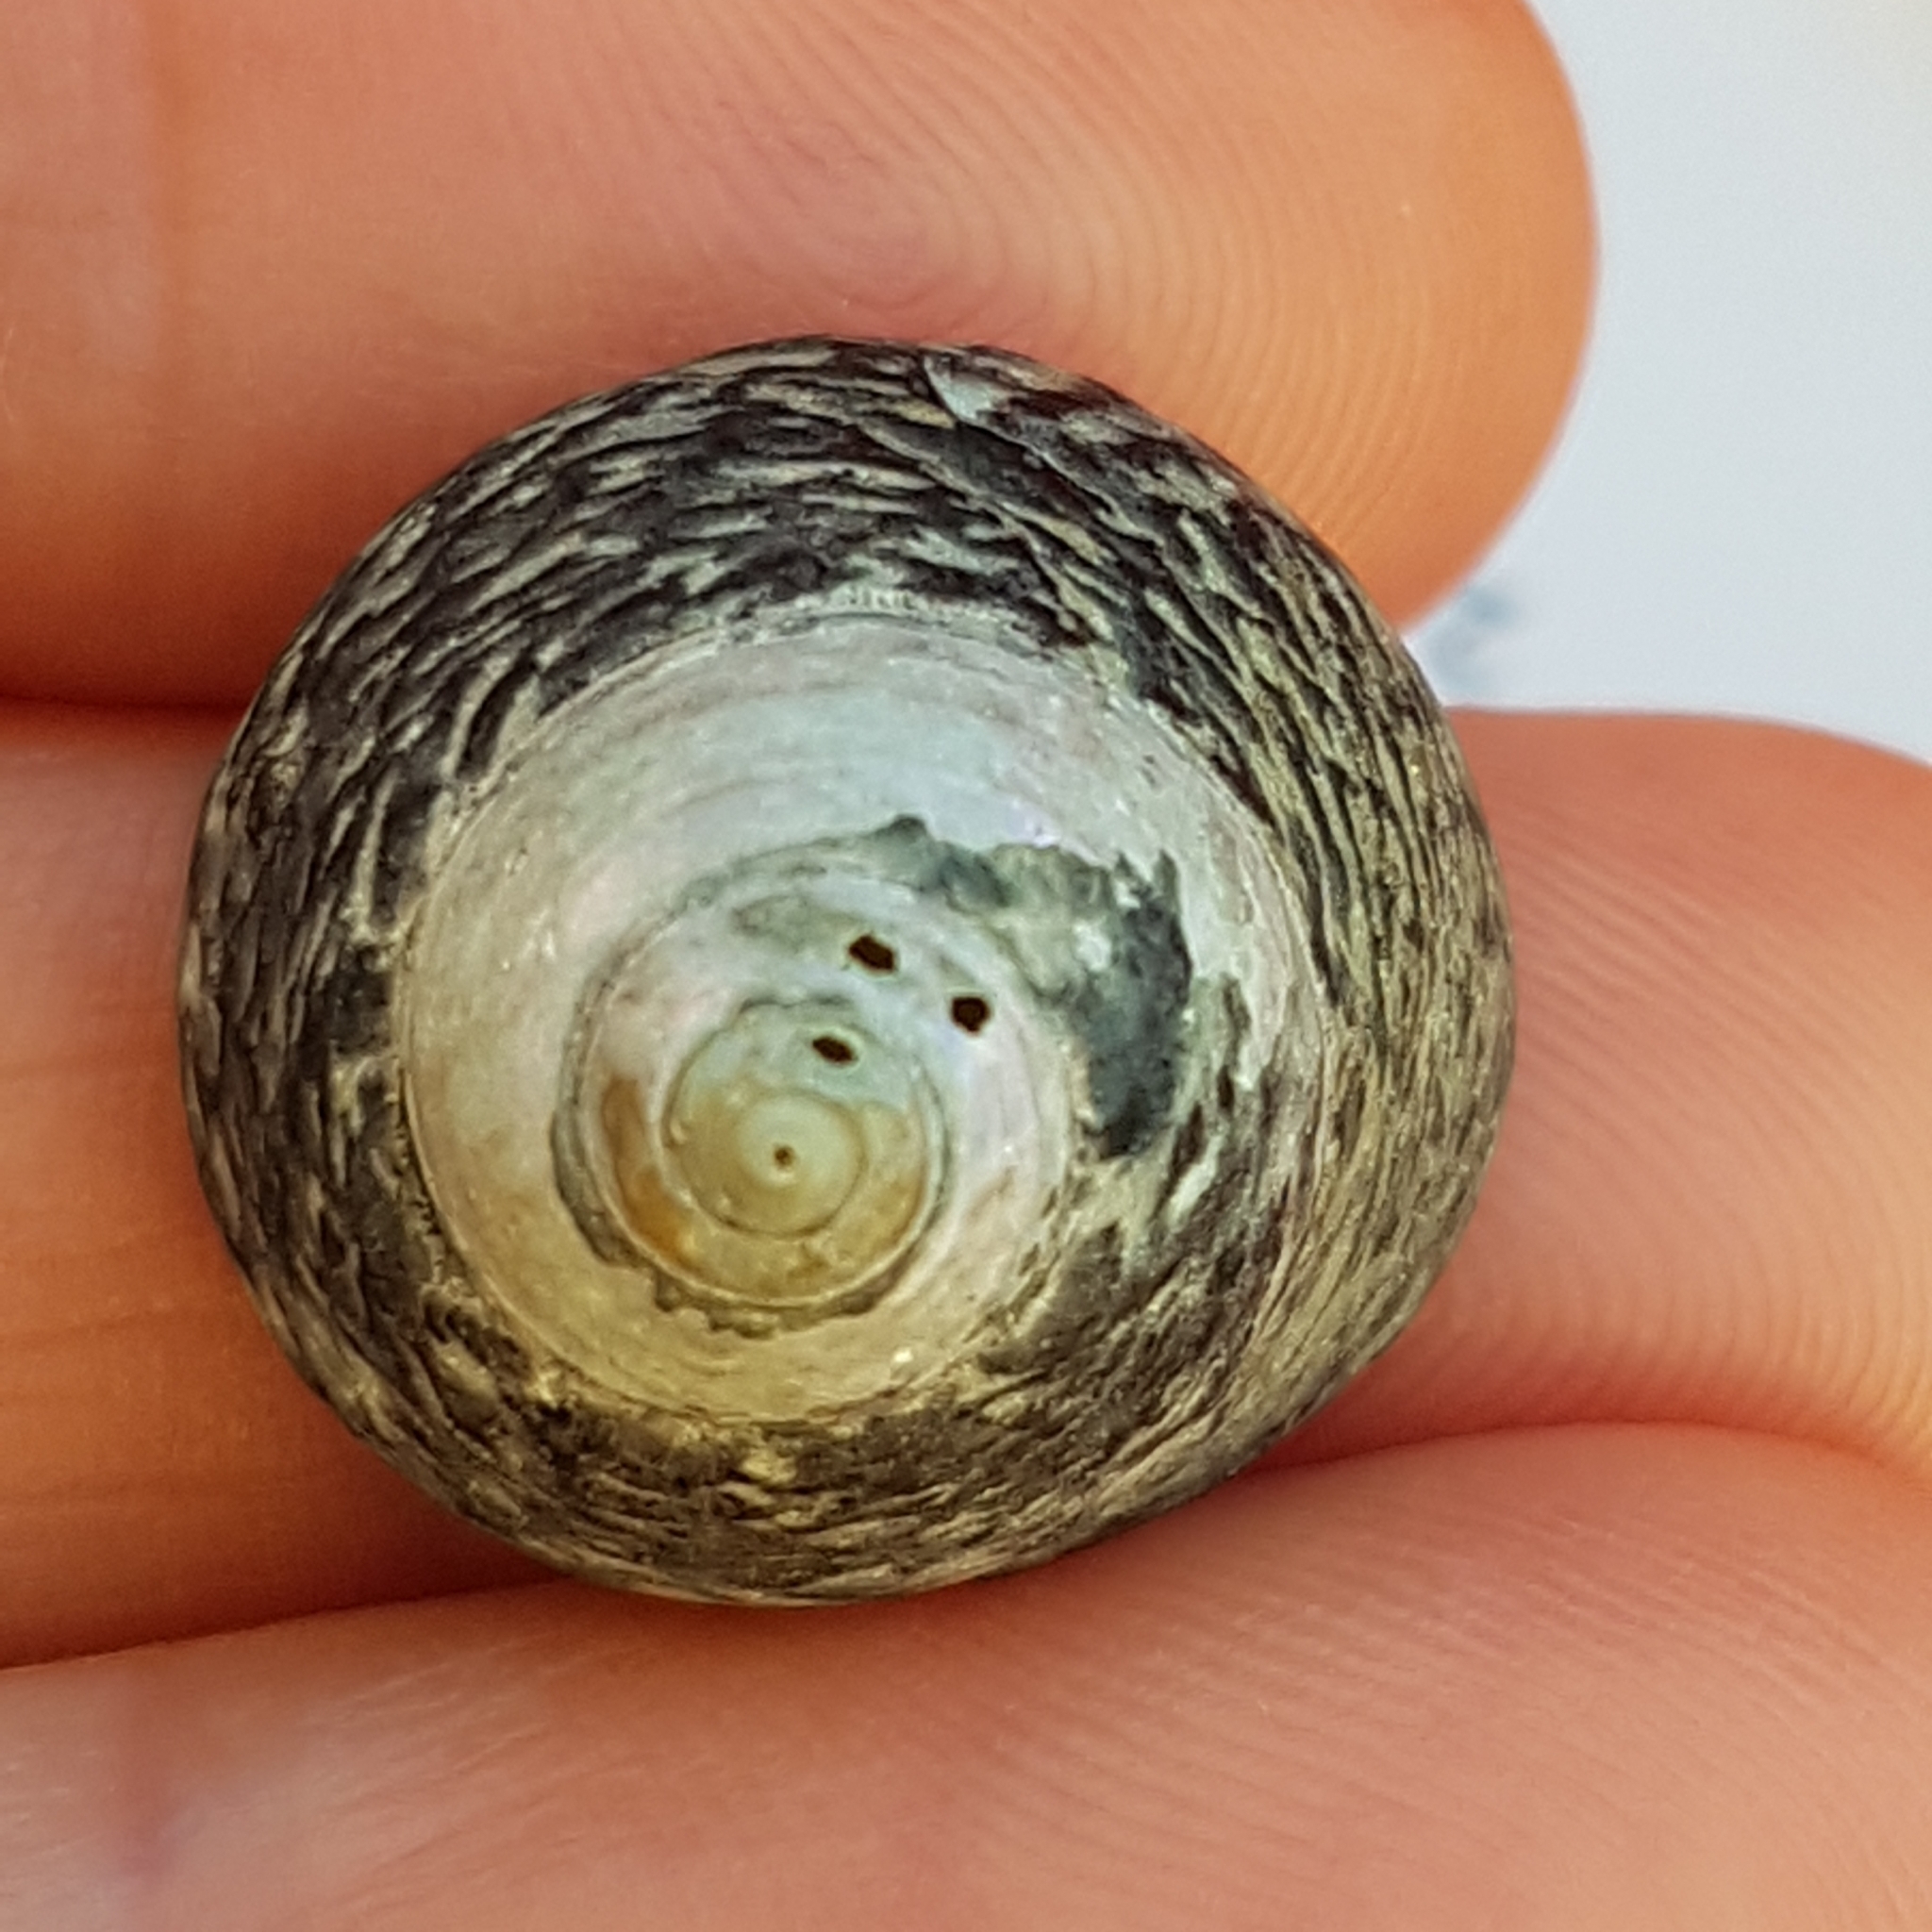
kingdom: Animalia
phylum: Mollusca
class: Gastropoda
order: Trochida
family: Trochidae
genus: Phorcus
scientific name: Phorcus lineatus
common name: Toothed top shell
